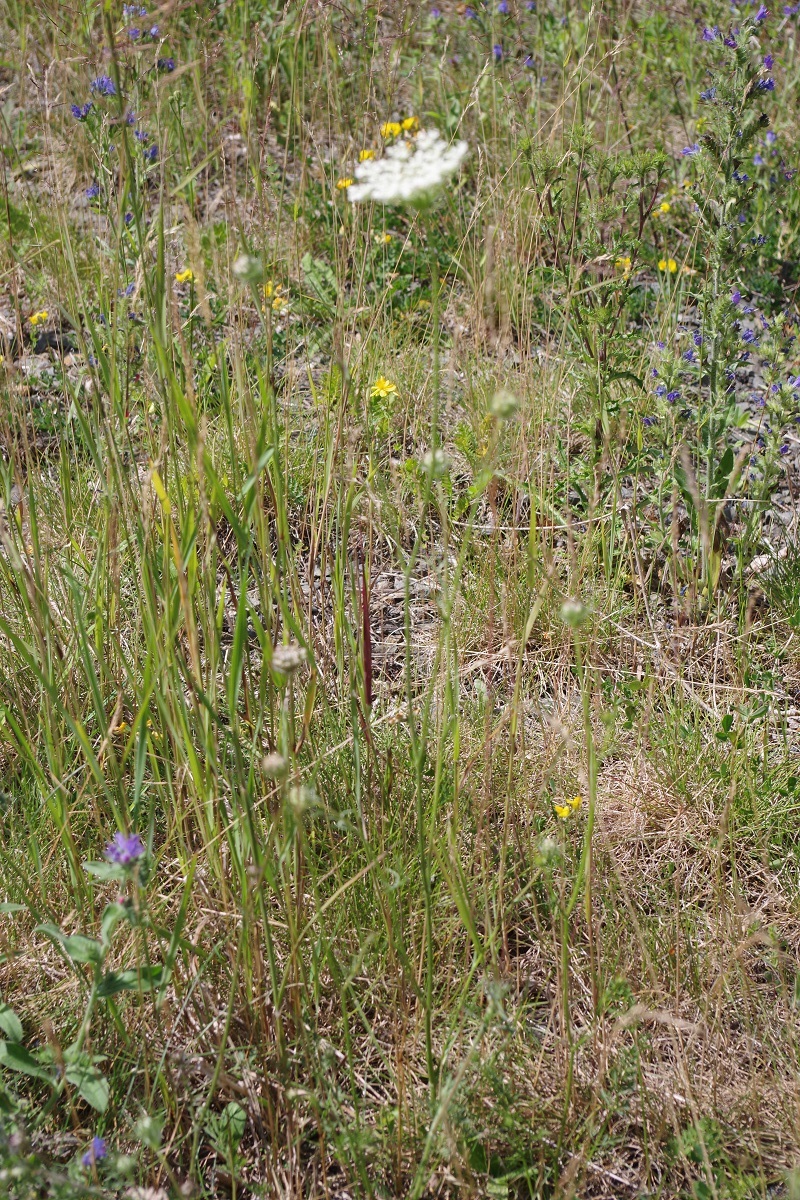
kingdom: Plantae
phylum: Tracheophyta
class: Magnoliopsida
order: Apiales
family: Apiaceae
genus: Daucus
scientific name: Daucus carota
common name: Wild carrot
